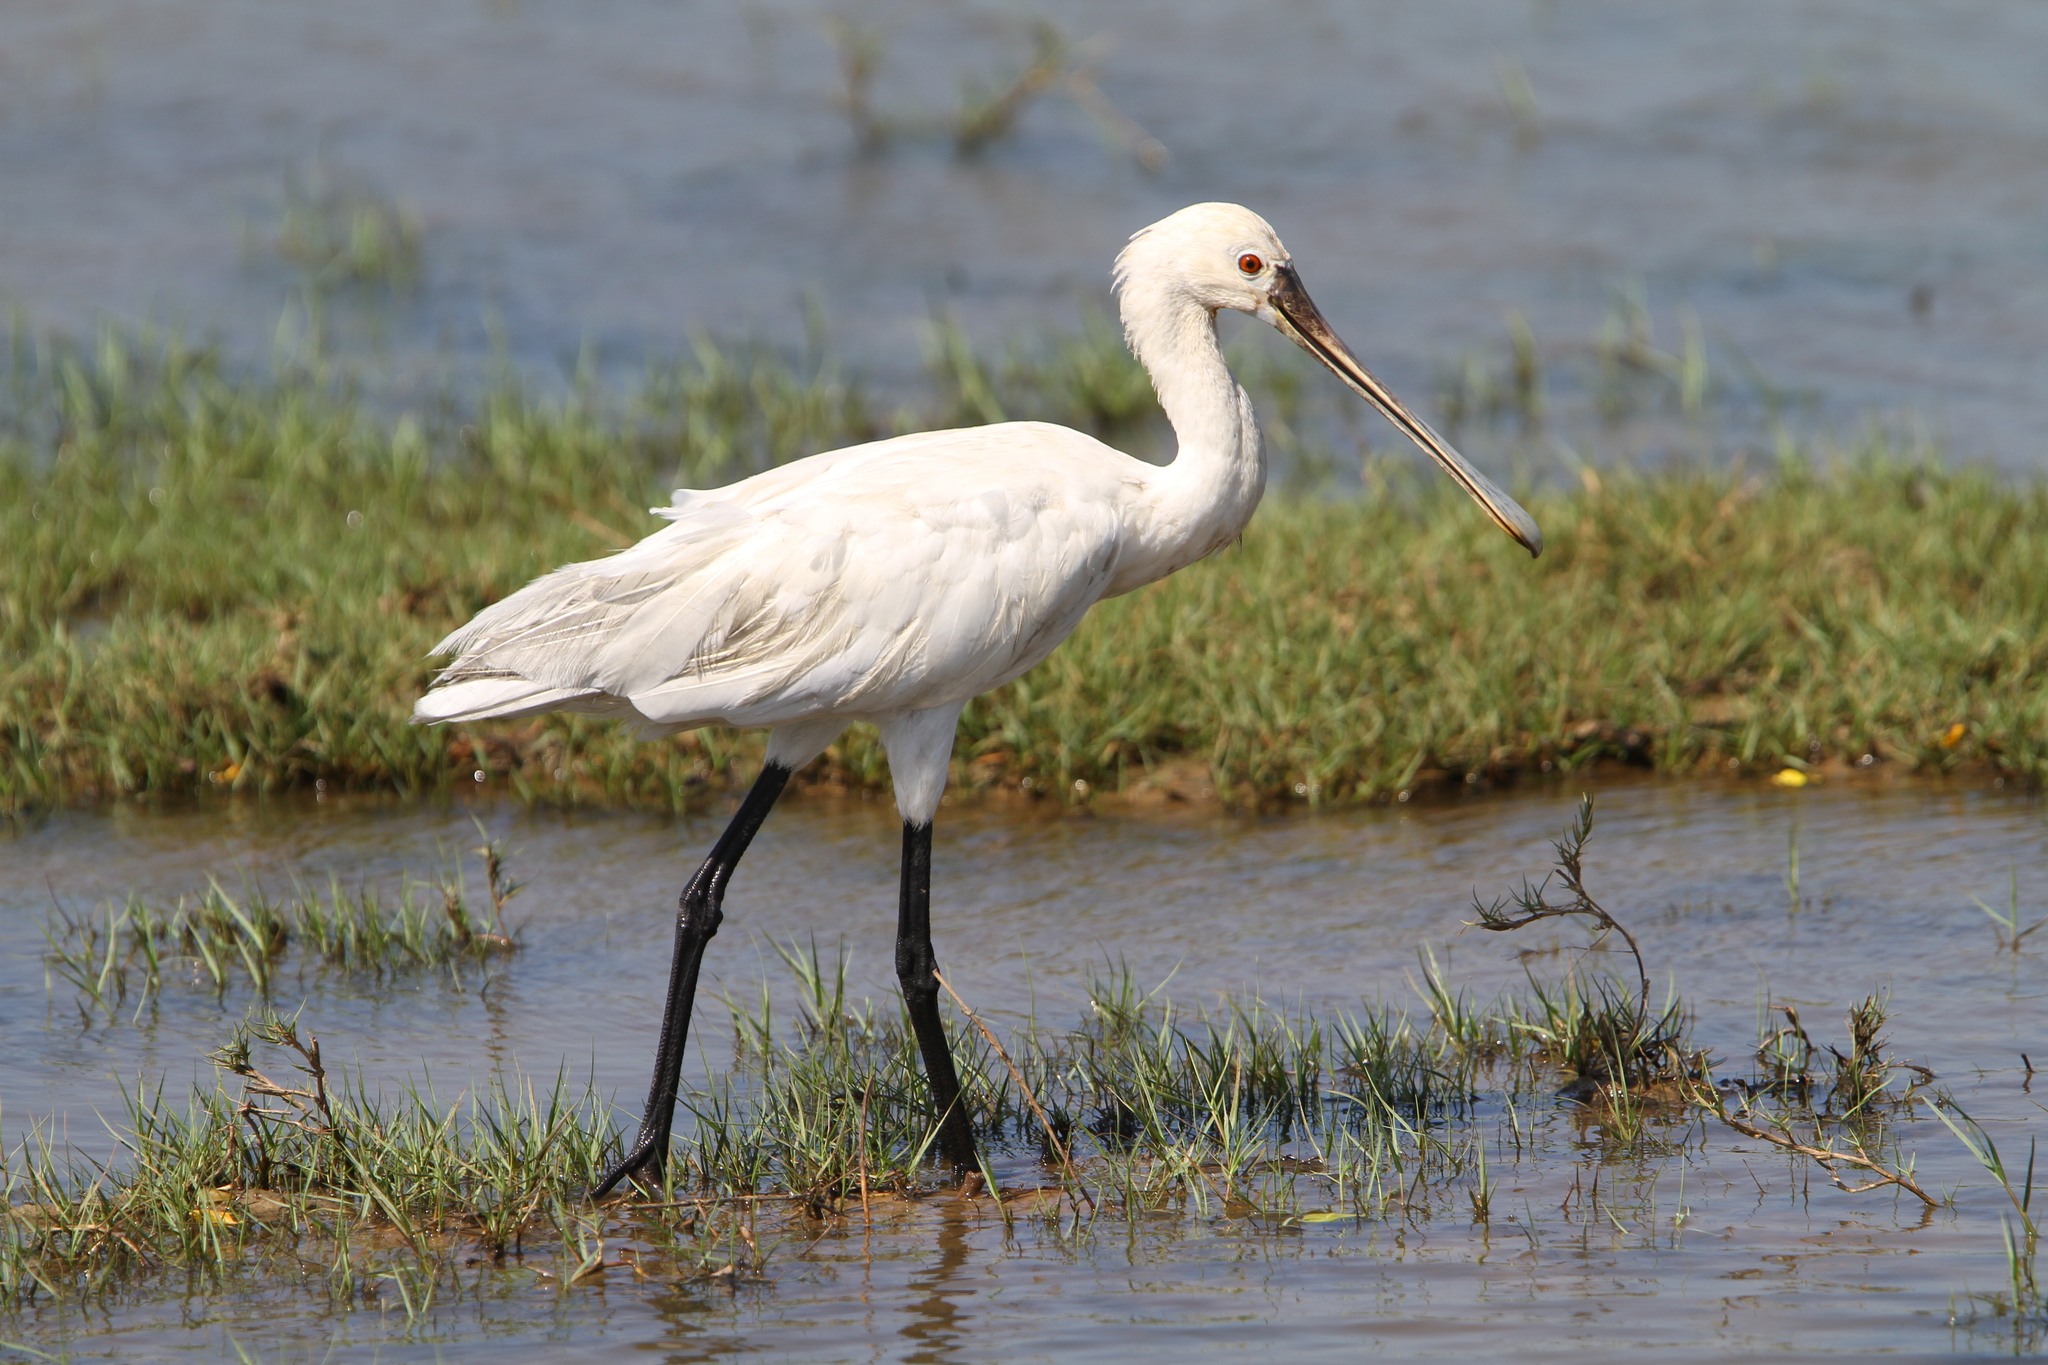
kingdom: Animalia
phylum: Chordata
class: Aves
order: Pelecaniformes
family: Threskiornithidae
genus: Platalea
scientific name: Platalea leucorodia
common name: Eurasian spoonbill
